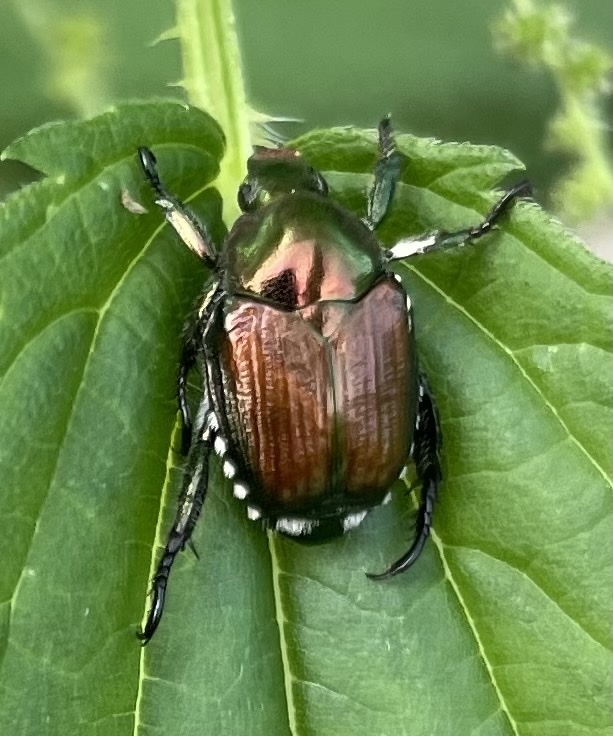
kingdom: Animalia
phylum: Arthropoda
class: Insecta
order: Coleoptera
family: Scarabaeidae
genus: Popillia
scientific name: Popillia japonica
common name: Japanese beetle
